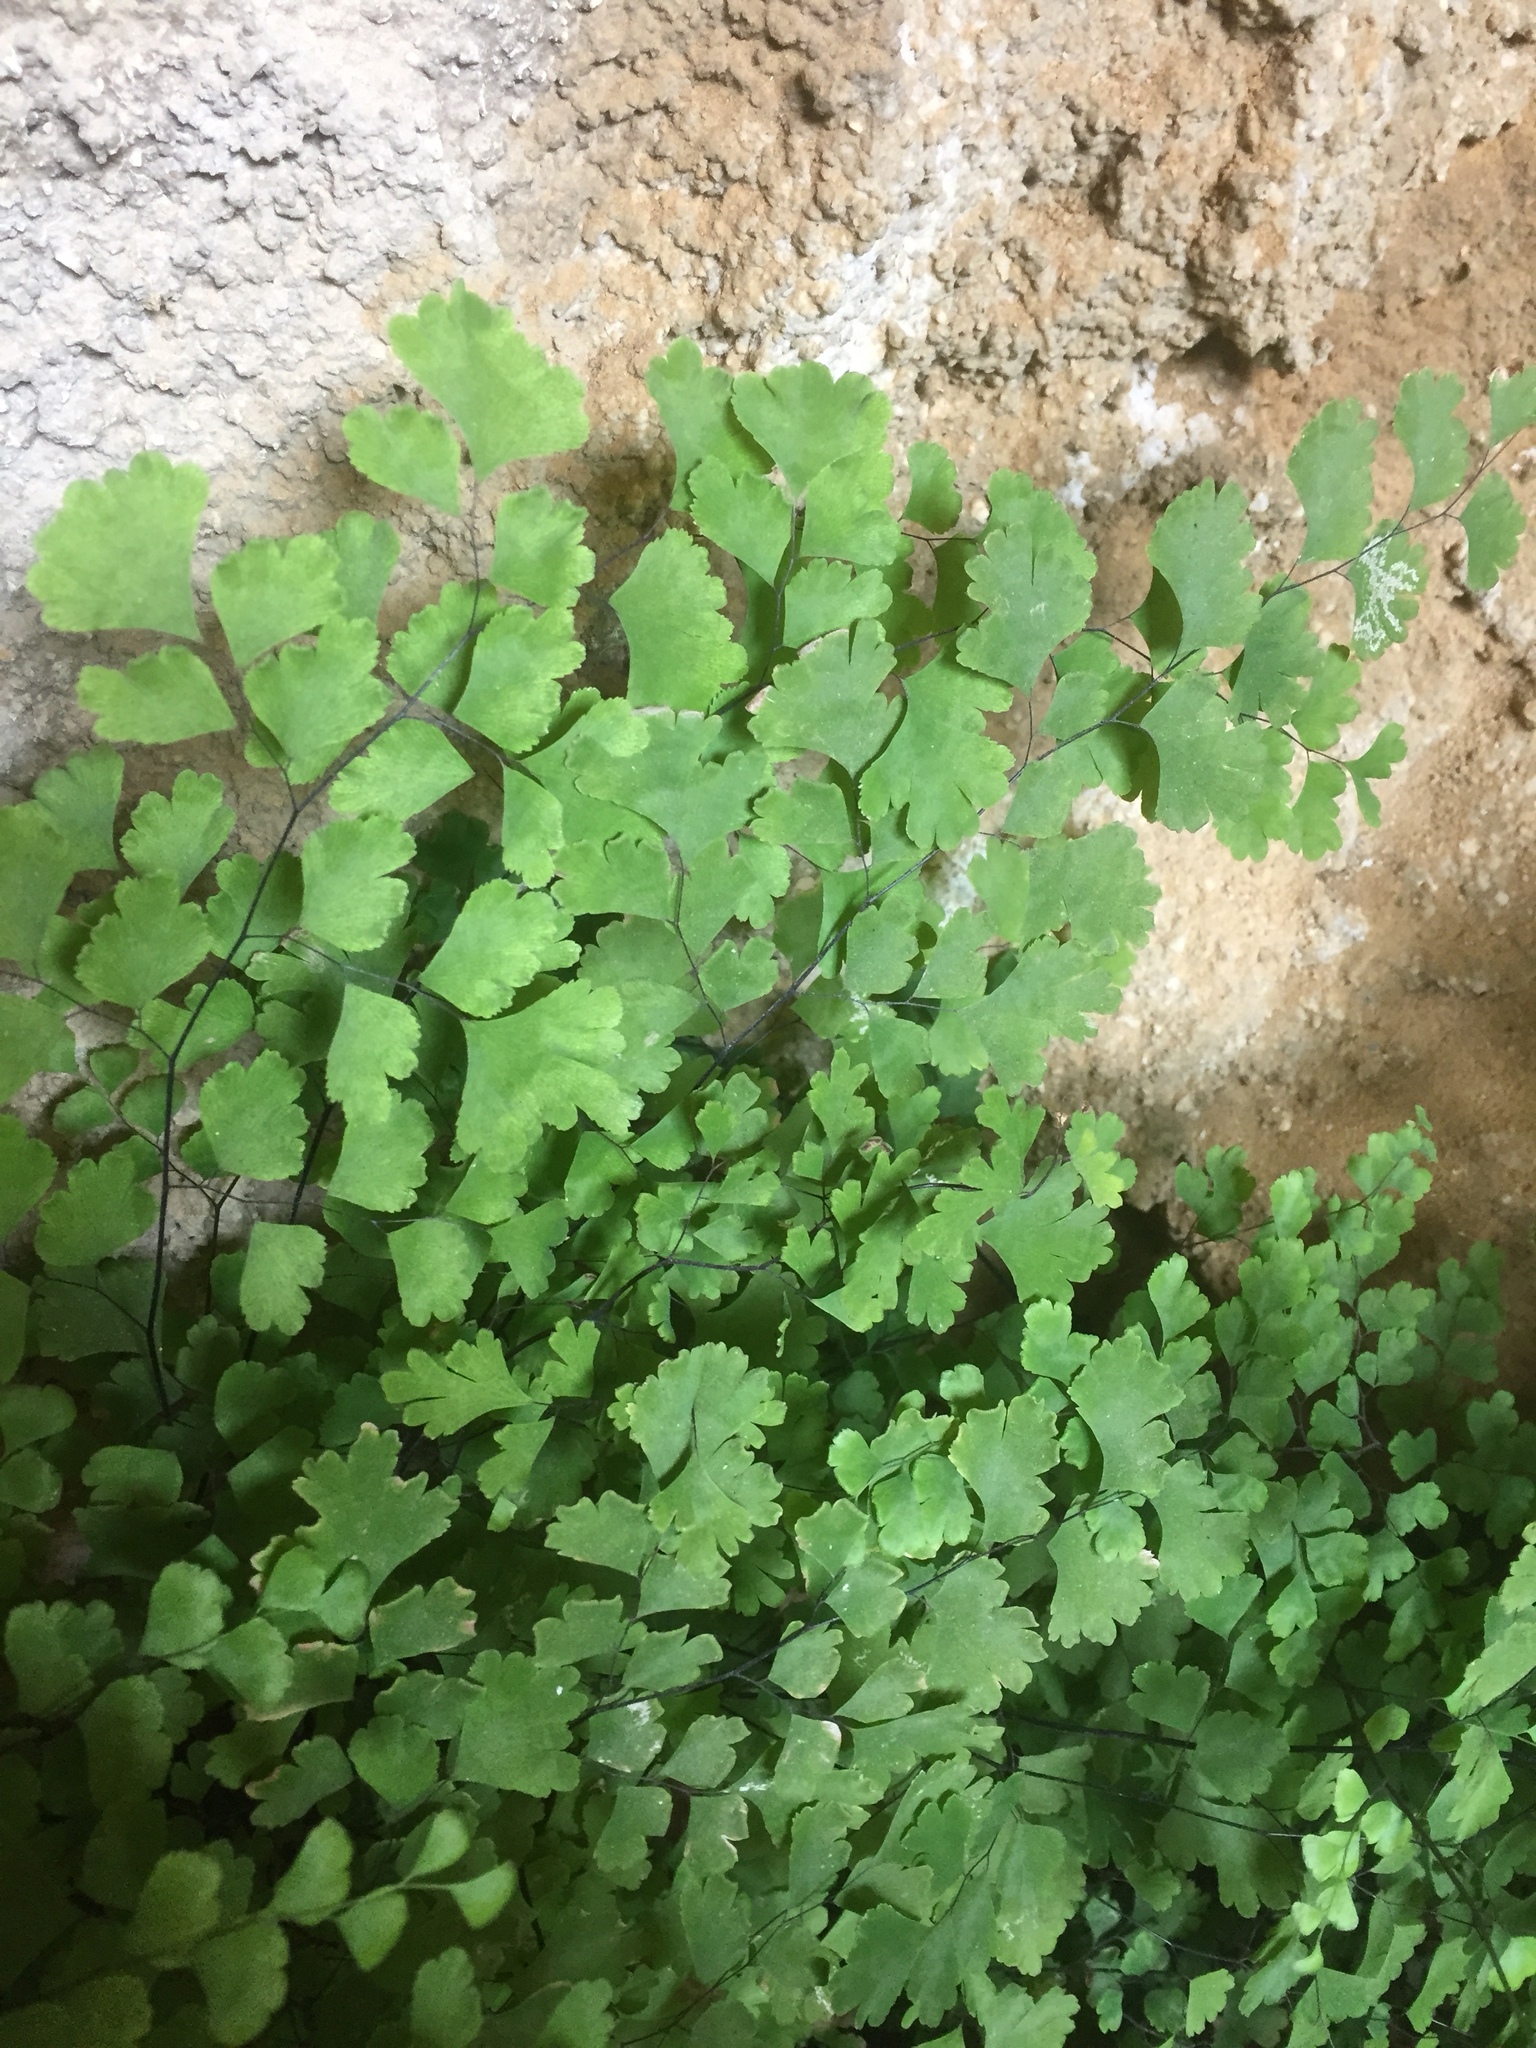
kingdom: Plantae
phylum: Tracheophyta
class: Polypodiopsida
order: Polypodiales
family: Pteridaceae
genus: Adiantum
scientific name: Adiantum capillus-veneris
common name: Maidenhair fern
